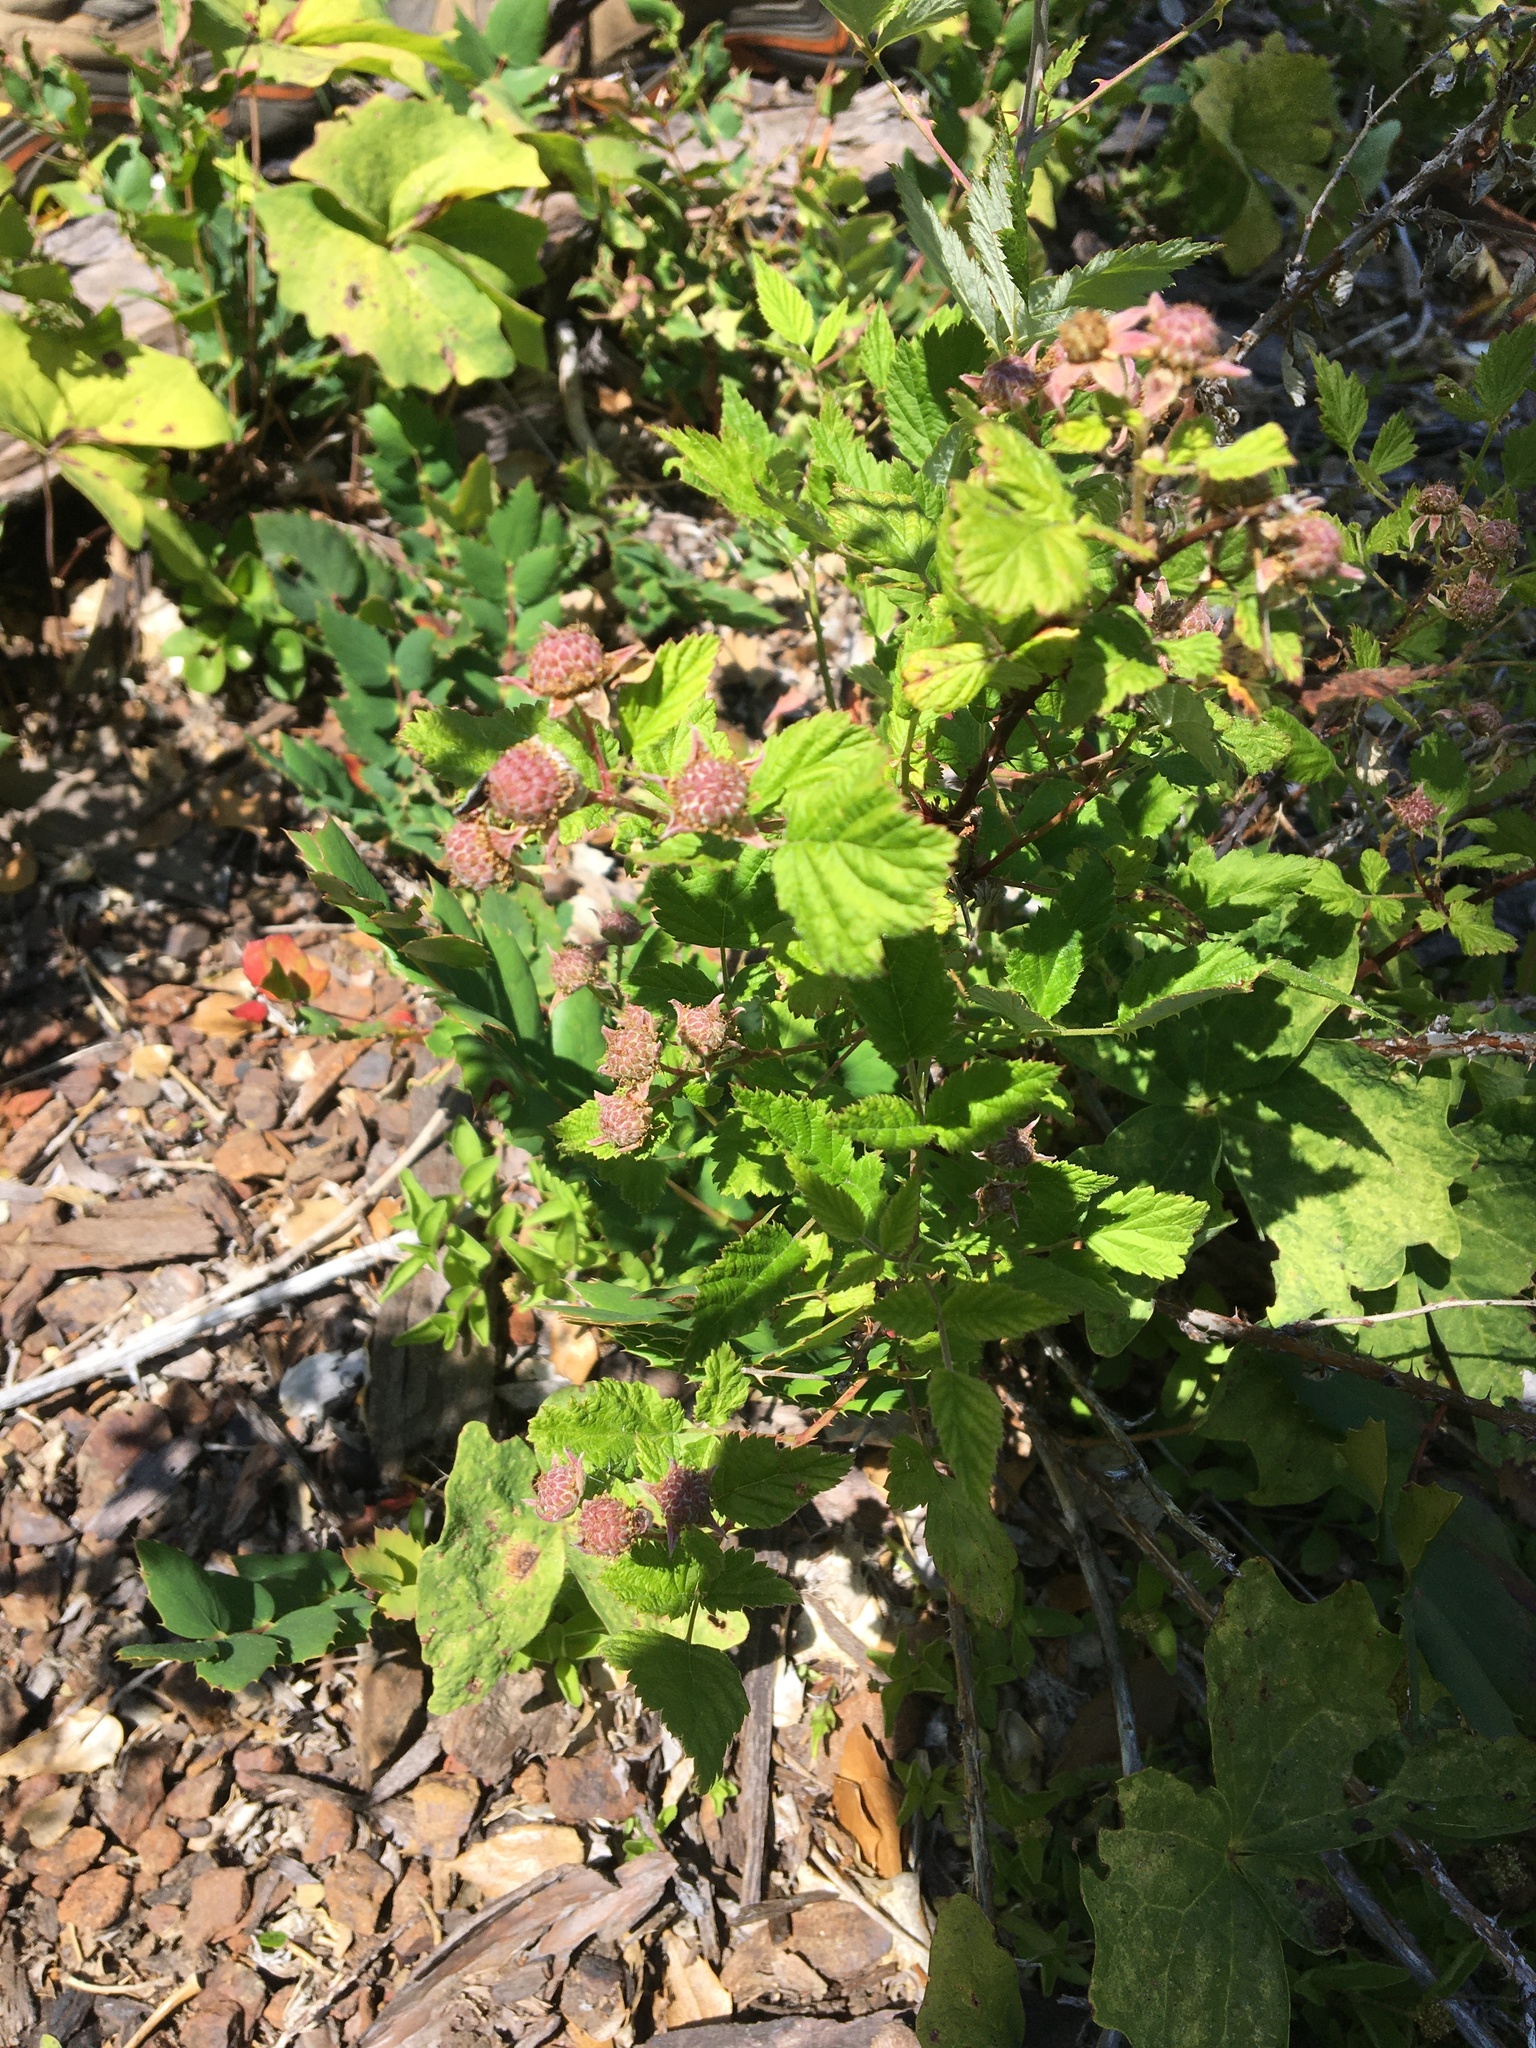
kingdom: Plantae
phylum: Tracheophyta
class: Magnoliopsida
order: Rosales
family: Rosaceae
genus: Rubus
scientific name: Rubus leucodermis
